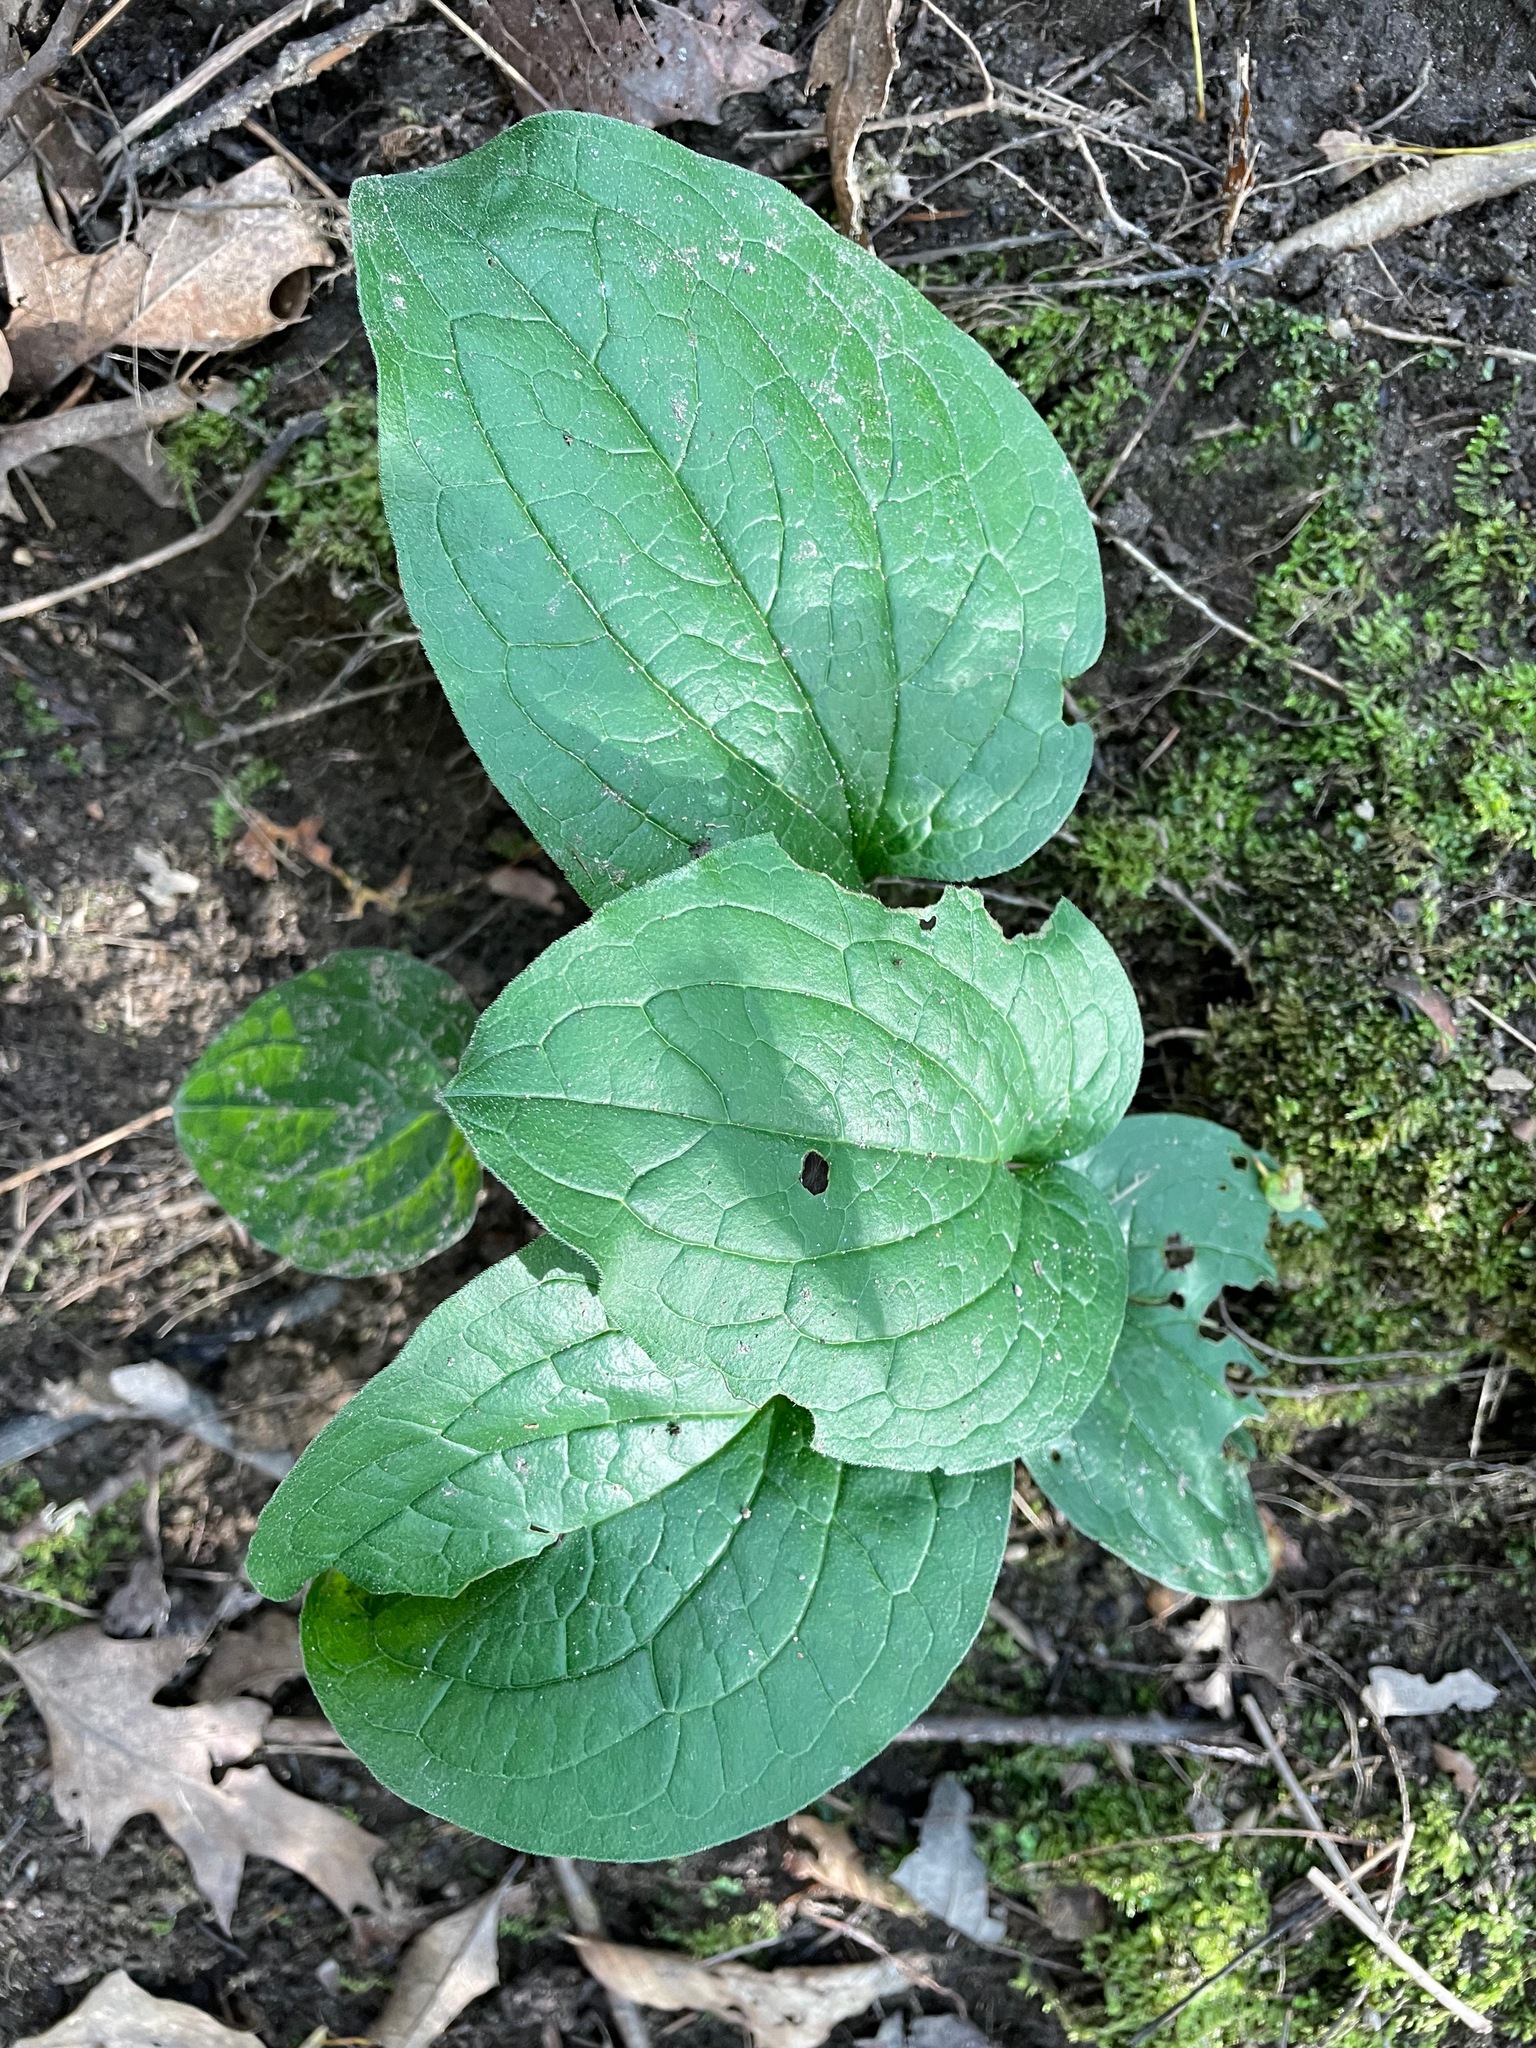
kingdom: Plantae
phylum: Tracheophyta
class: Magnoliopsida
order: Boraginales
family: Boraginaceae
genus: Hackelia
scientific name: Hackelia virginiana
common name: Beggar's-lice
